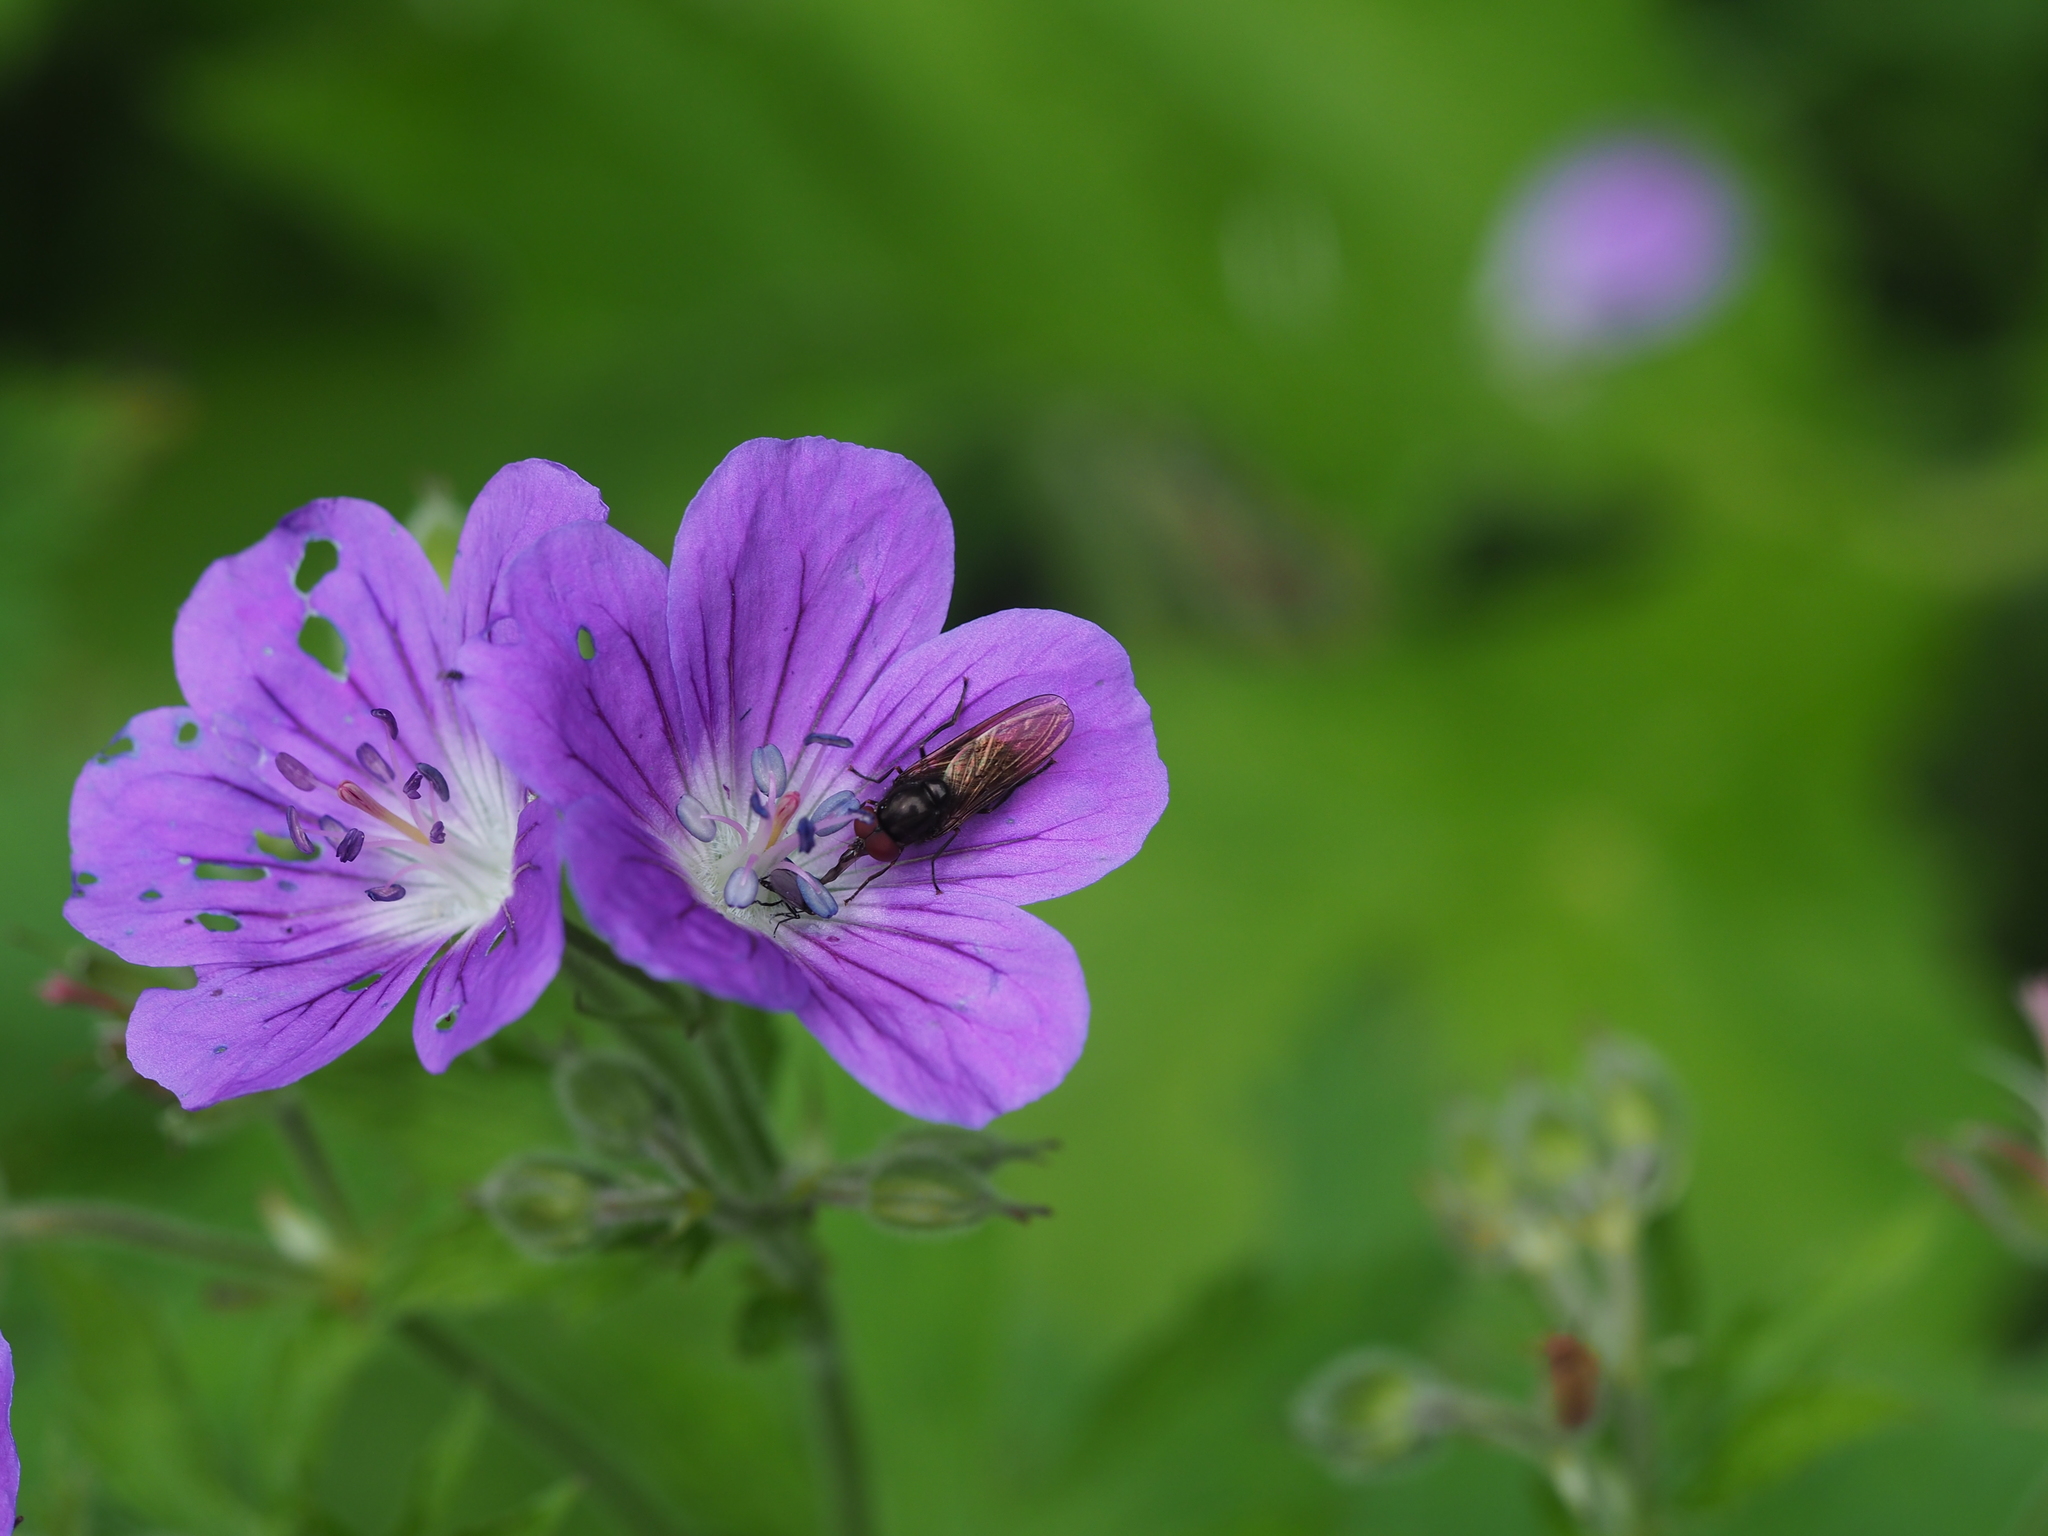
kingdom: Plantae
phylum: Tracheophyta
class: Magnoliopsida
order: Geraniales
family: Geraniaceae
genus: Geranium
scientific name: Geranium sylvaticum
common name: Wood crane's-bill
